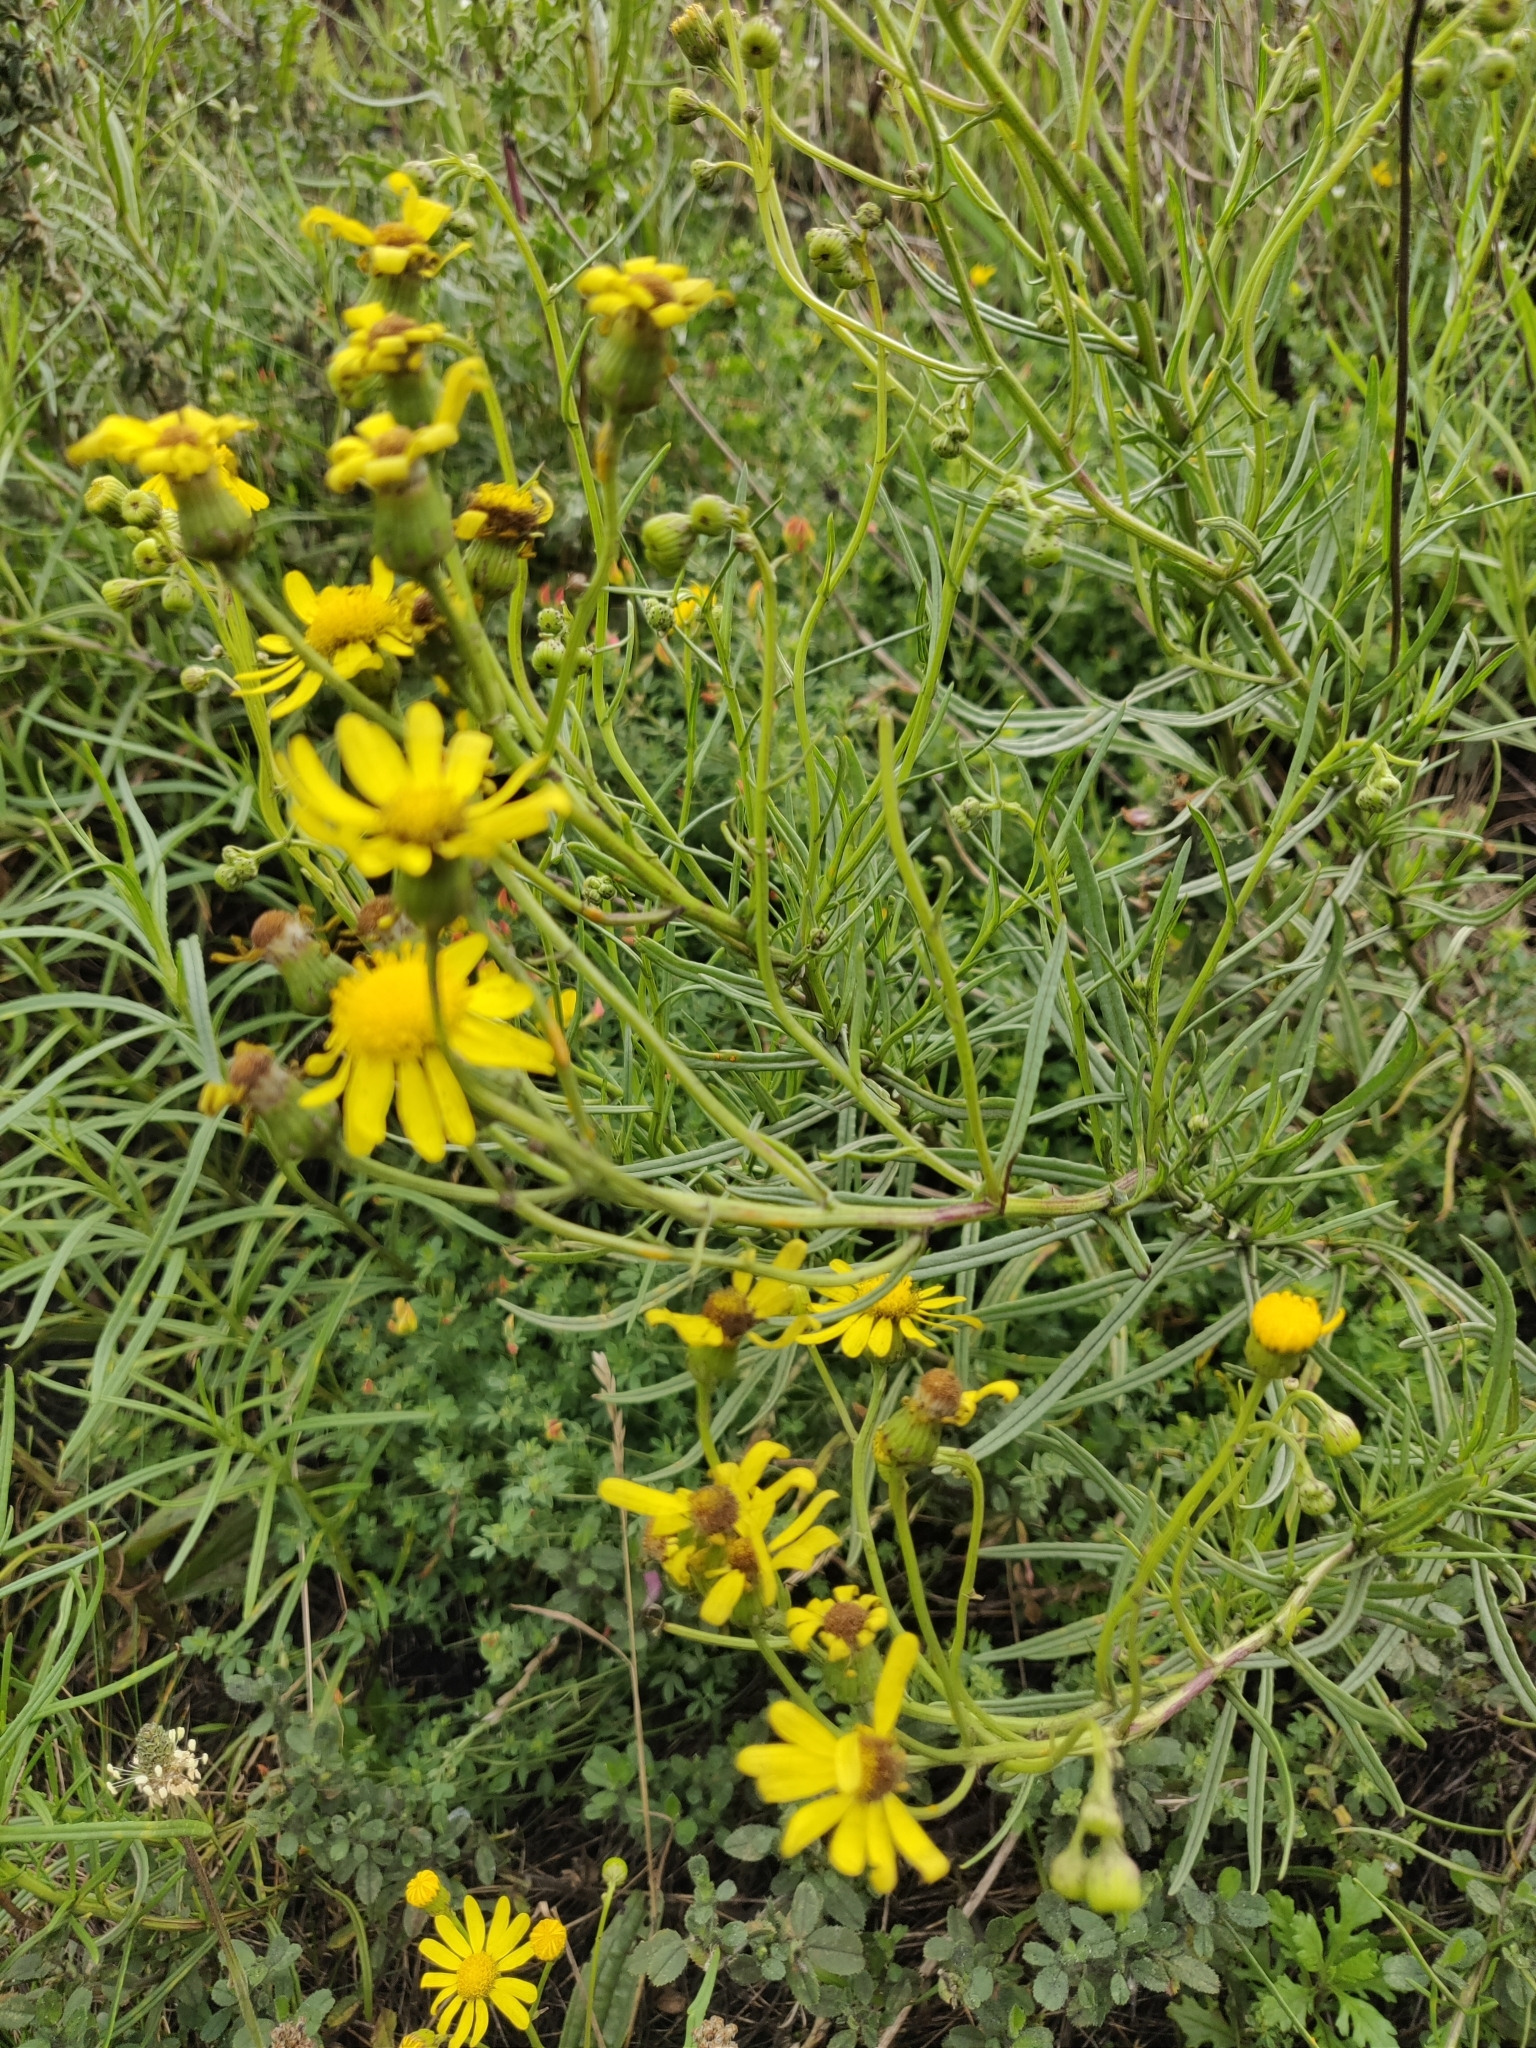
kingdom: Plantae
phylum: Tracheophyta
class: Magnoliopsida
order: Asterales
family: Asteraceae
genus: Senecio
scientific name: Senecio inaequidens
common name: Narrow-leaved ragwort
